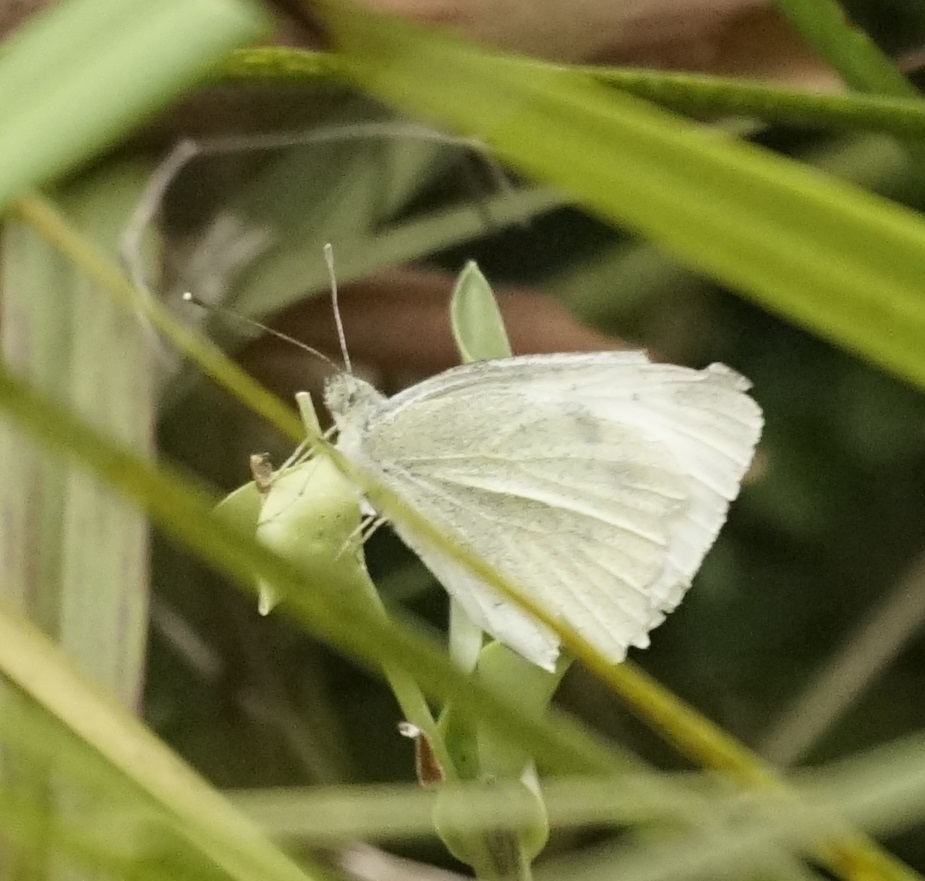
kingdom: Animalia
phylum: Arthropoda
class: Insecta
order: Lepidoptera
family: Pieridae
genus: Pieris
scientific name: Pieris rapae
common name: Small white
